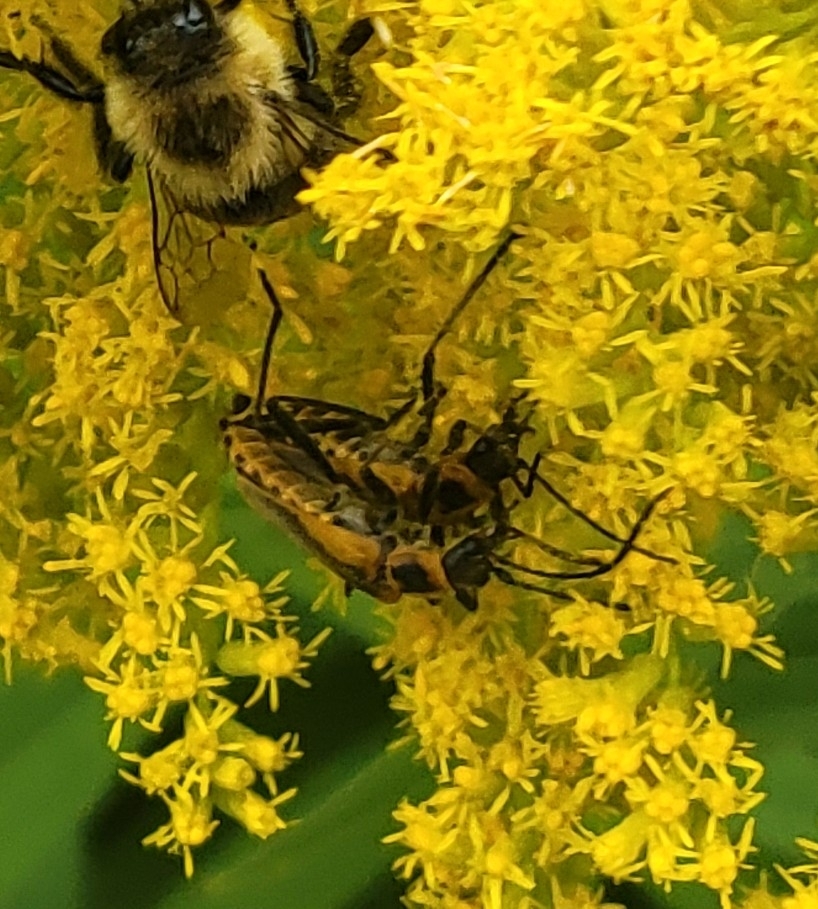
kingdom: Animalia
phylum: Arthropoda
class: Insecta
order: Coleoptera
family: Cantharidae
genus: Chauliognathus
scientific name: Chauliognathus pensylvanicus
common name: Goldenrod soldier beetle
